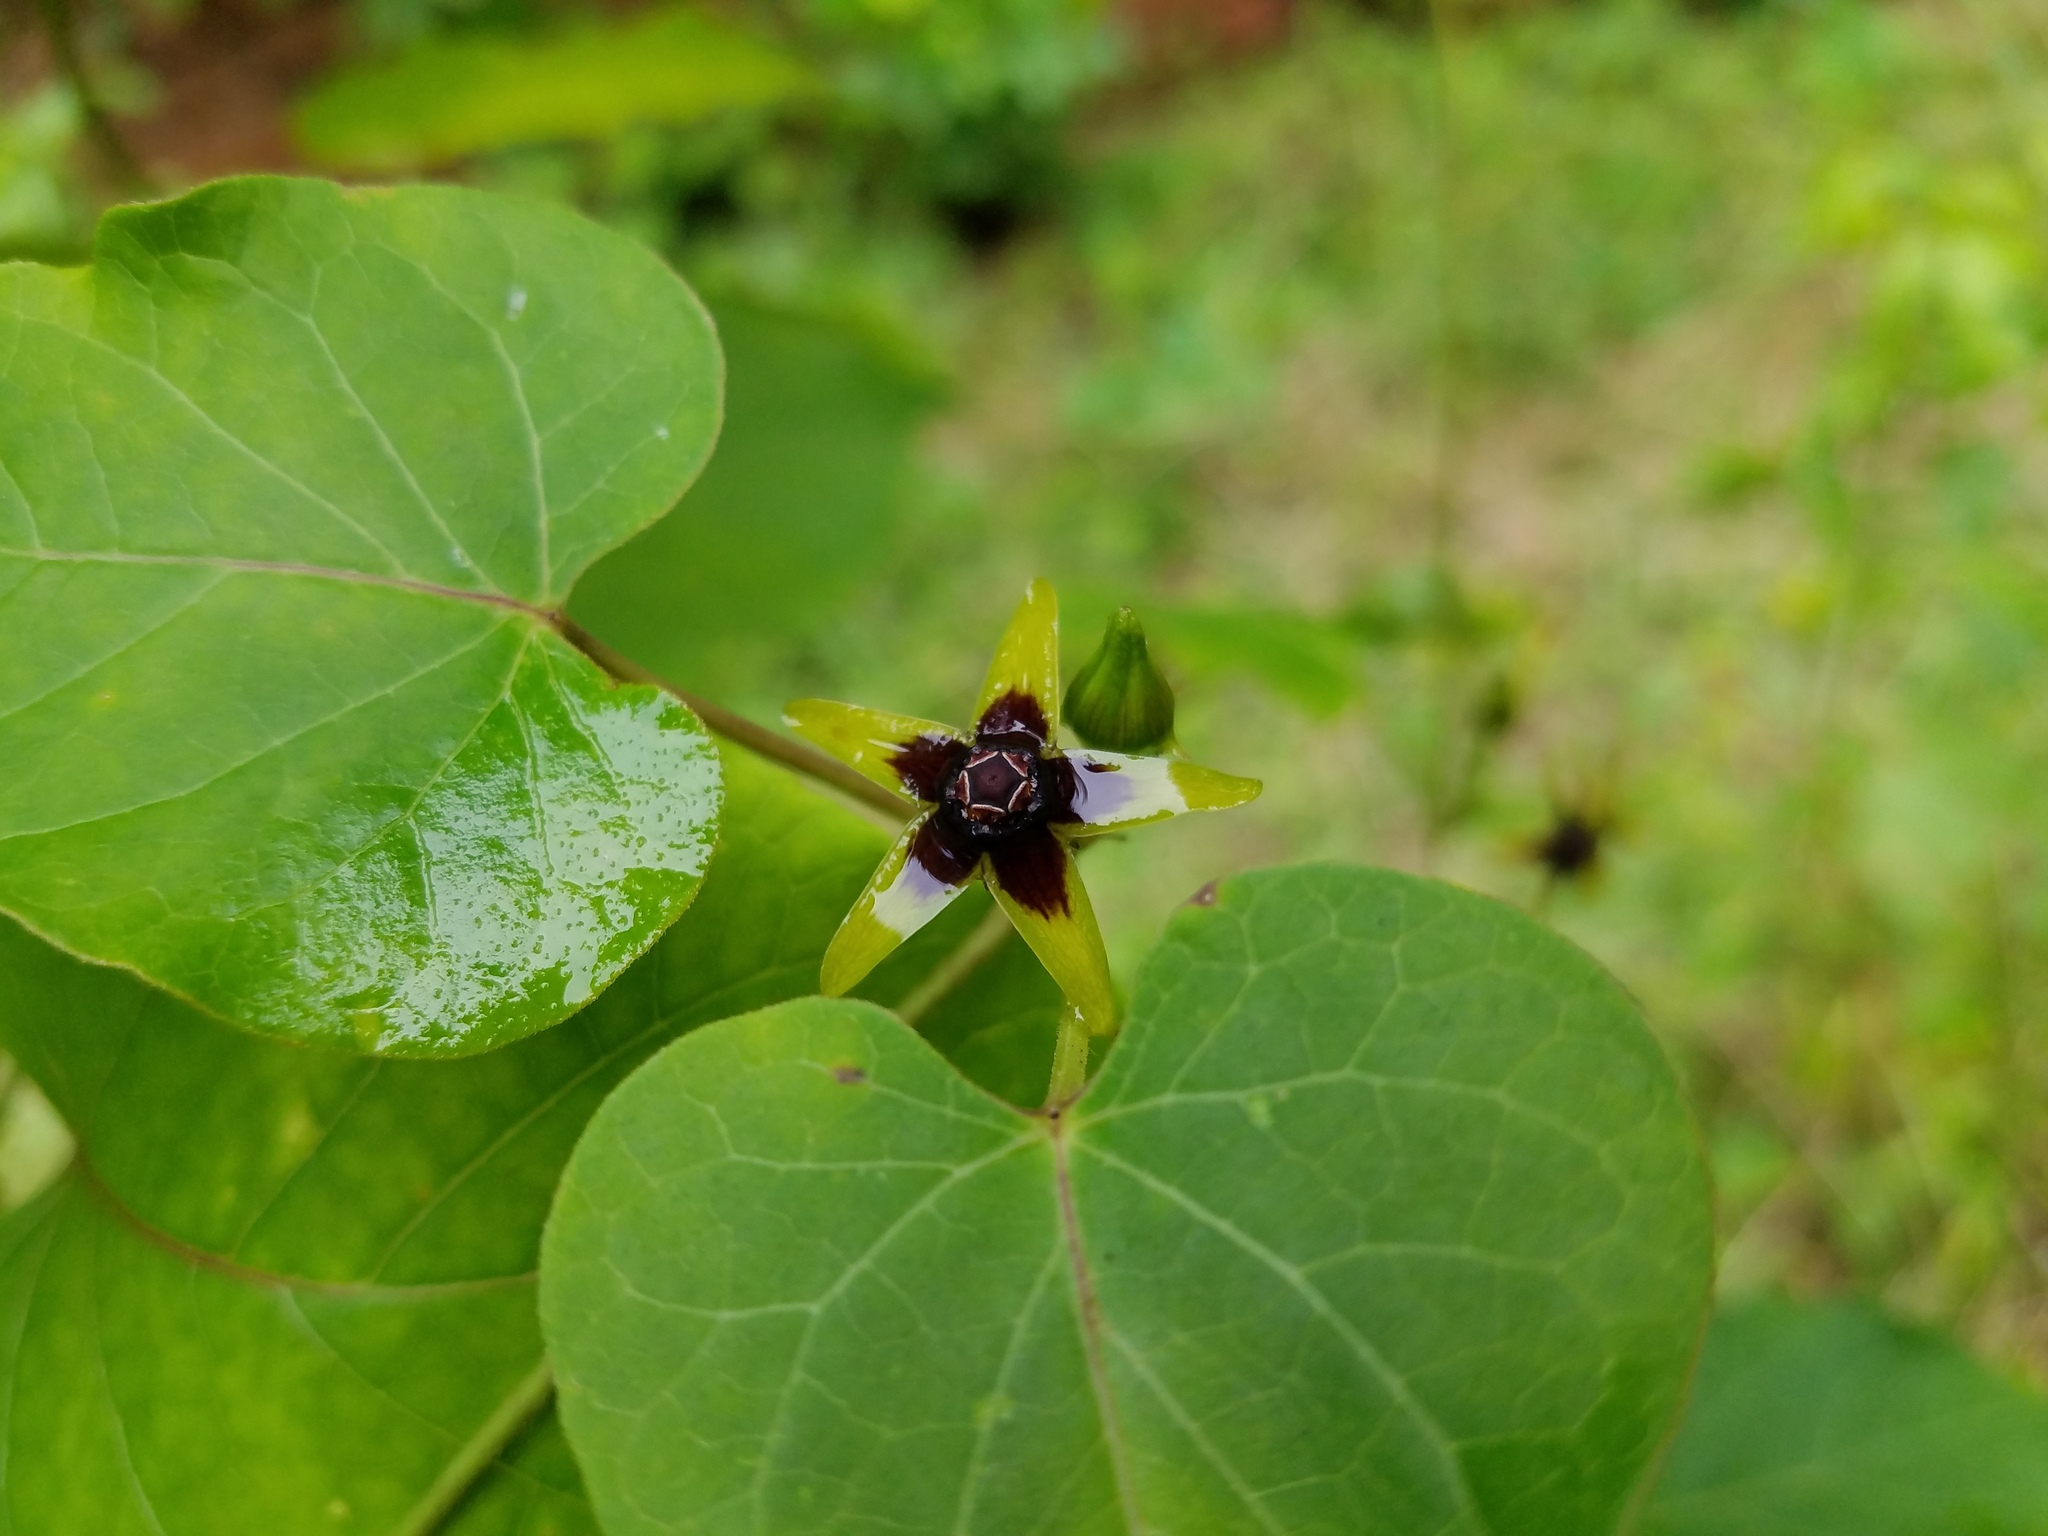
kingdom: Plantae
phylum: Tracheophyta
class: Magnoliopsida
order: Gentianales
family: Apocynaceae
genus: Gonolobus
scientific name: Gonolobus suberosus
